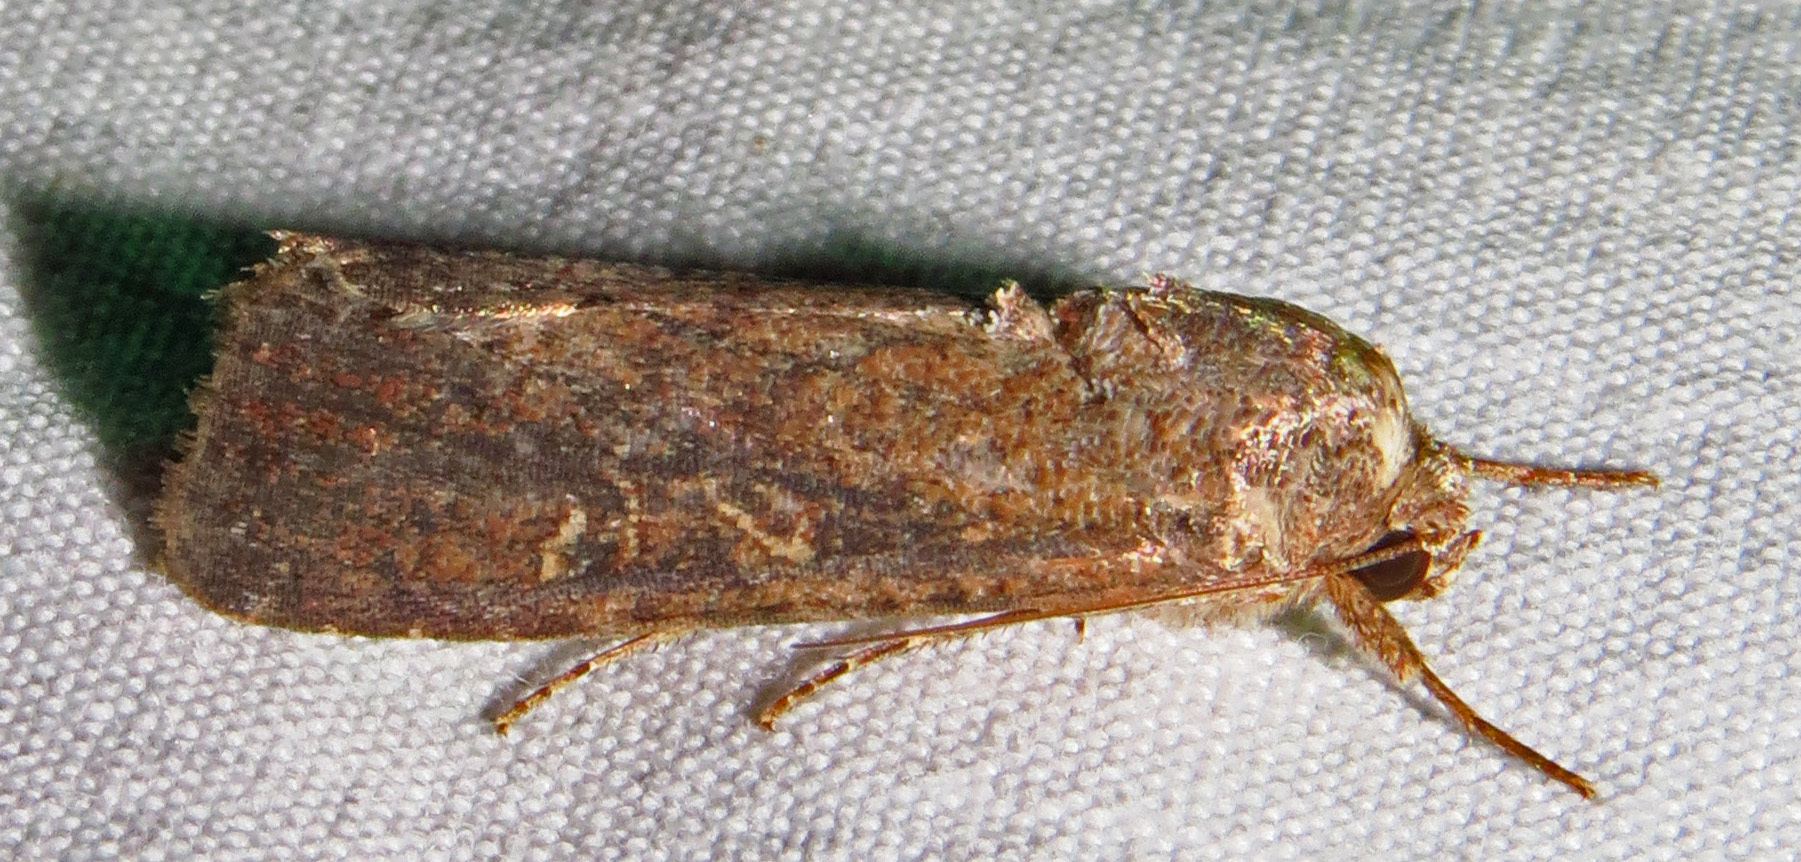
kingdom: Animalia
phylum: Arthropoda
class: Insecta
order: Lepidoptera
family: Noctuidae
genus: Spodoptera
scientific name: Spodoptera frugiperda
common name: Fall armyworm
